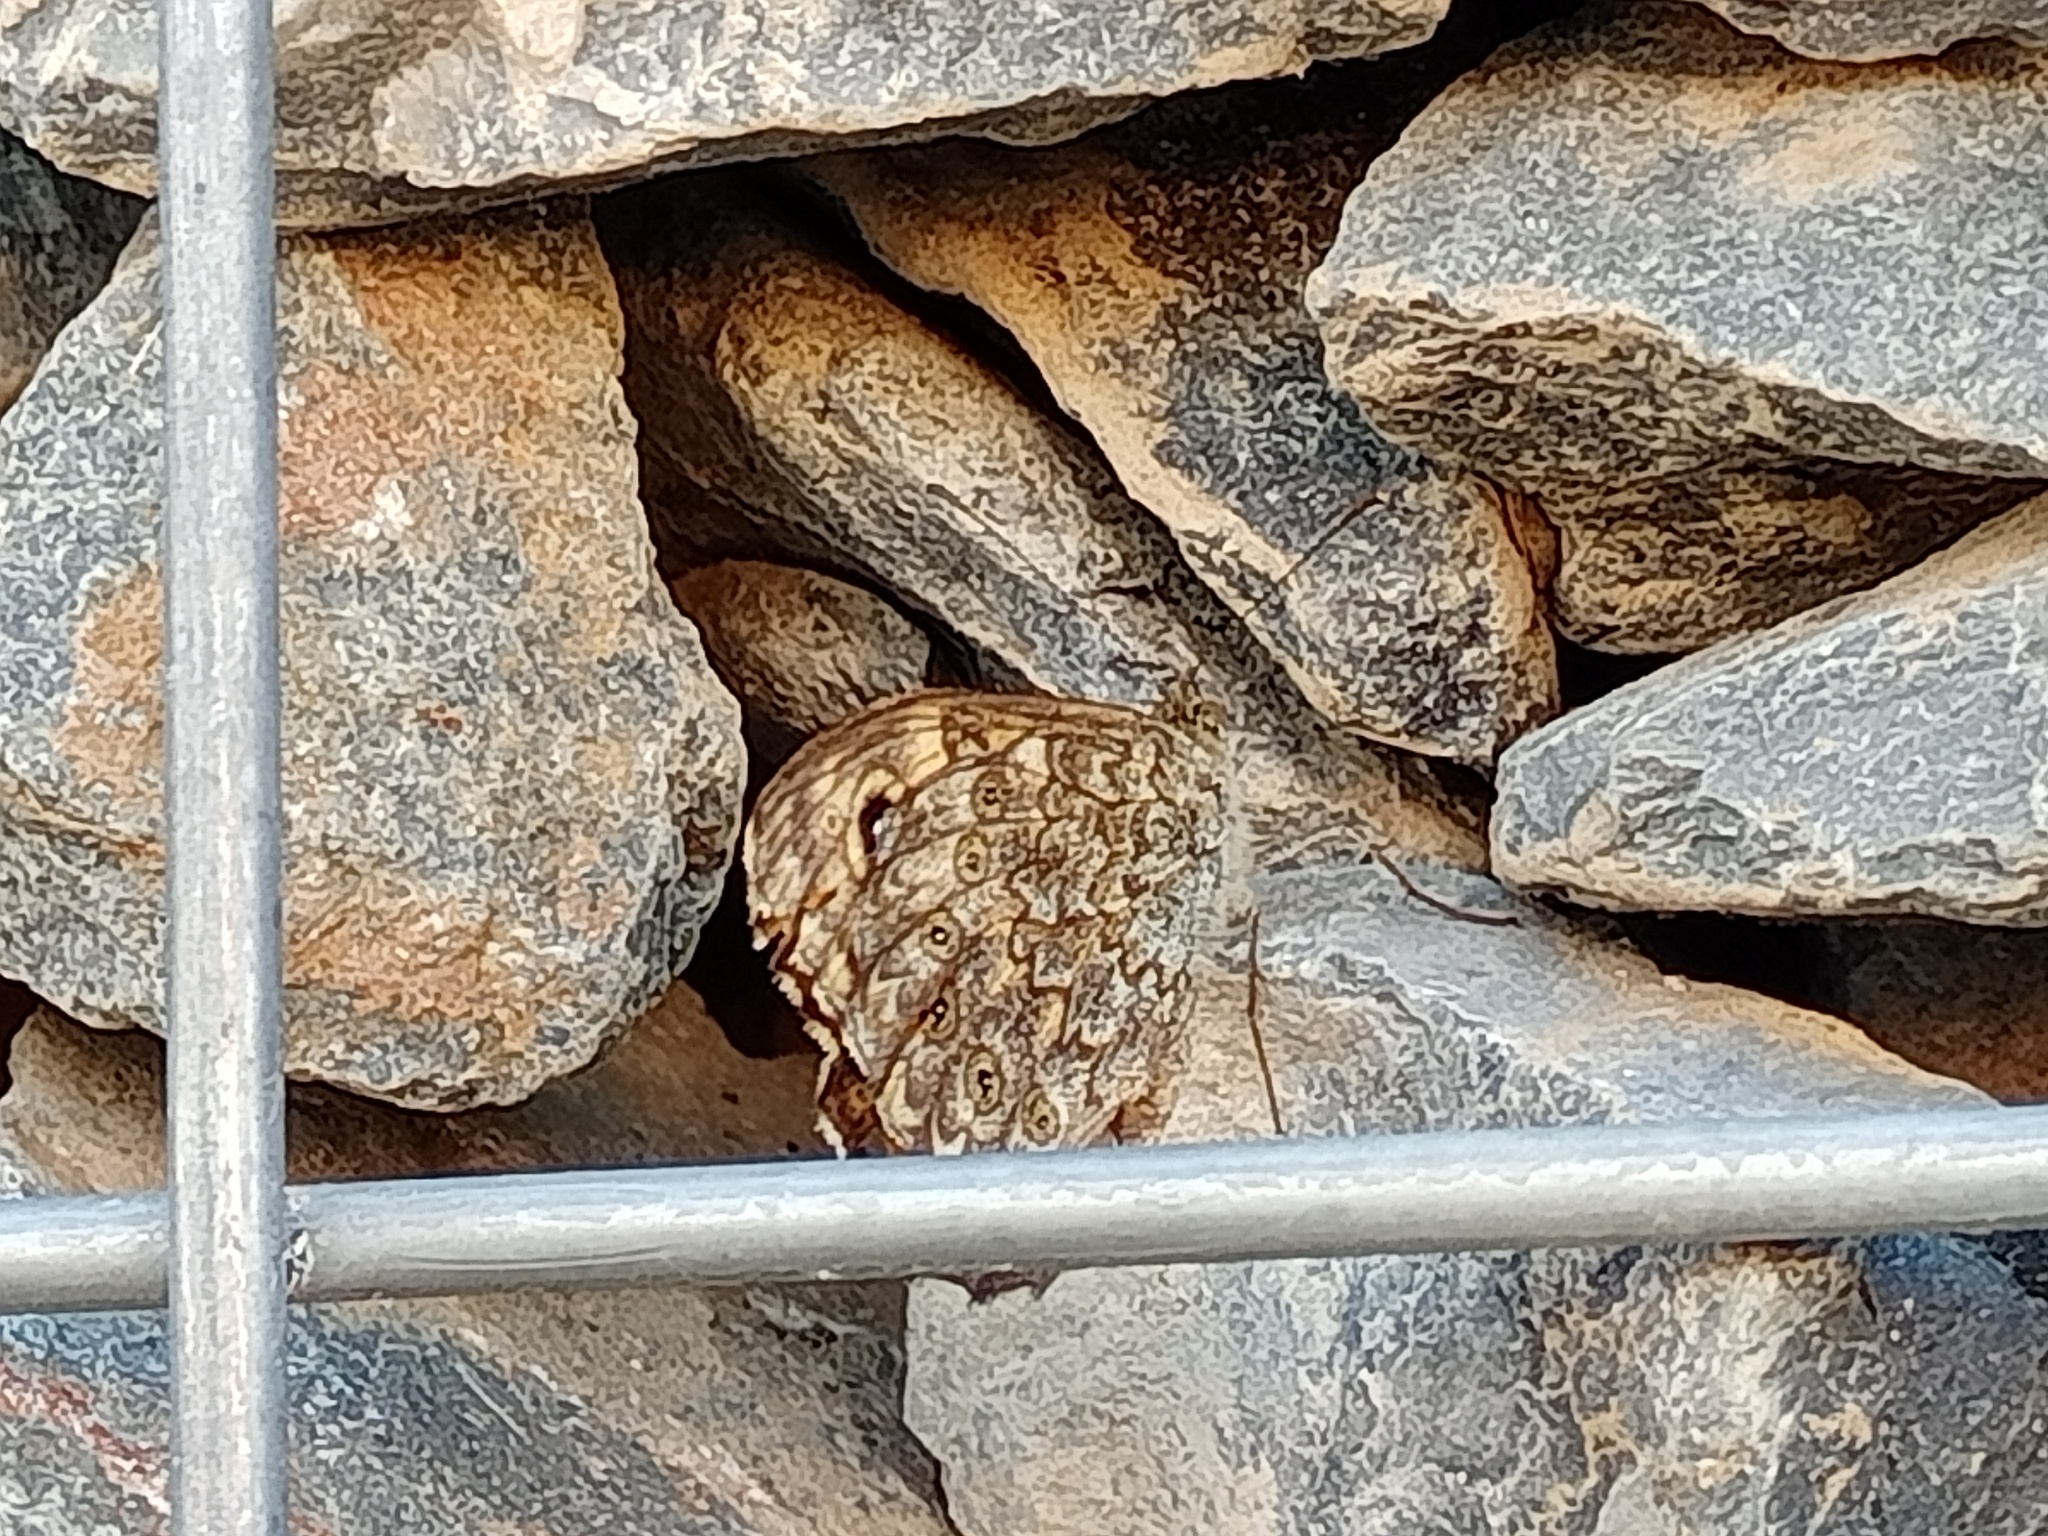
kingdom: Animalia
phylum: Arthropoda
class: Insecta
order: Lepidoptera
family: Nymphalidae
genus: Pararge
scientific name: Pararge Lasiommata megera
